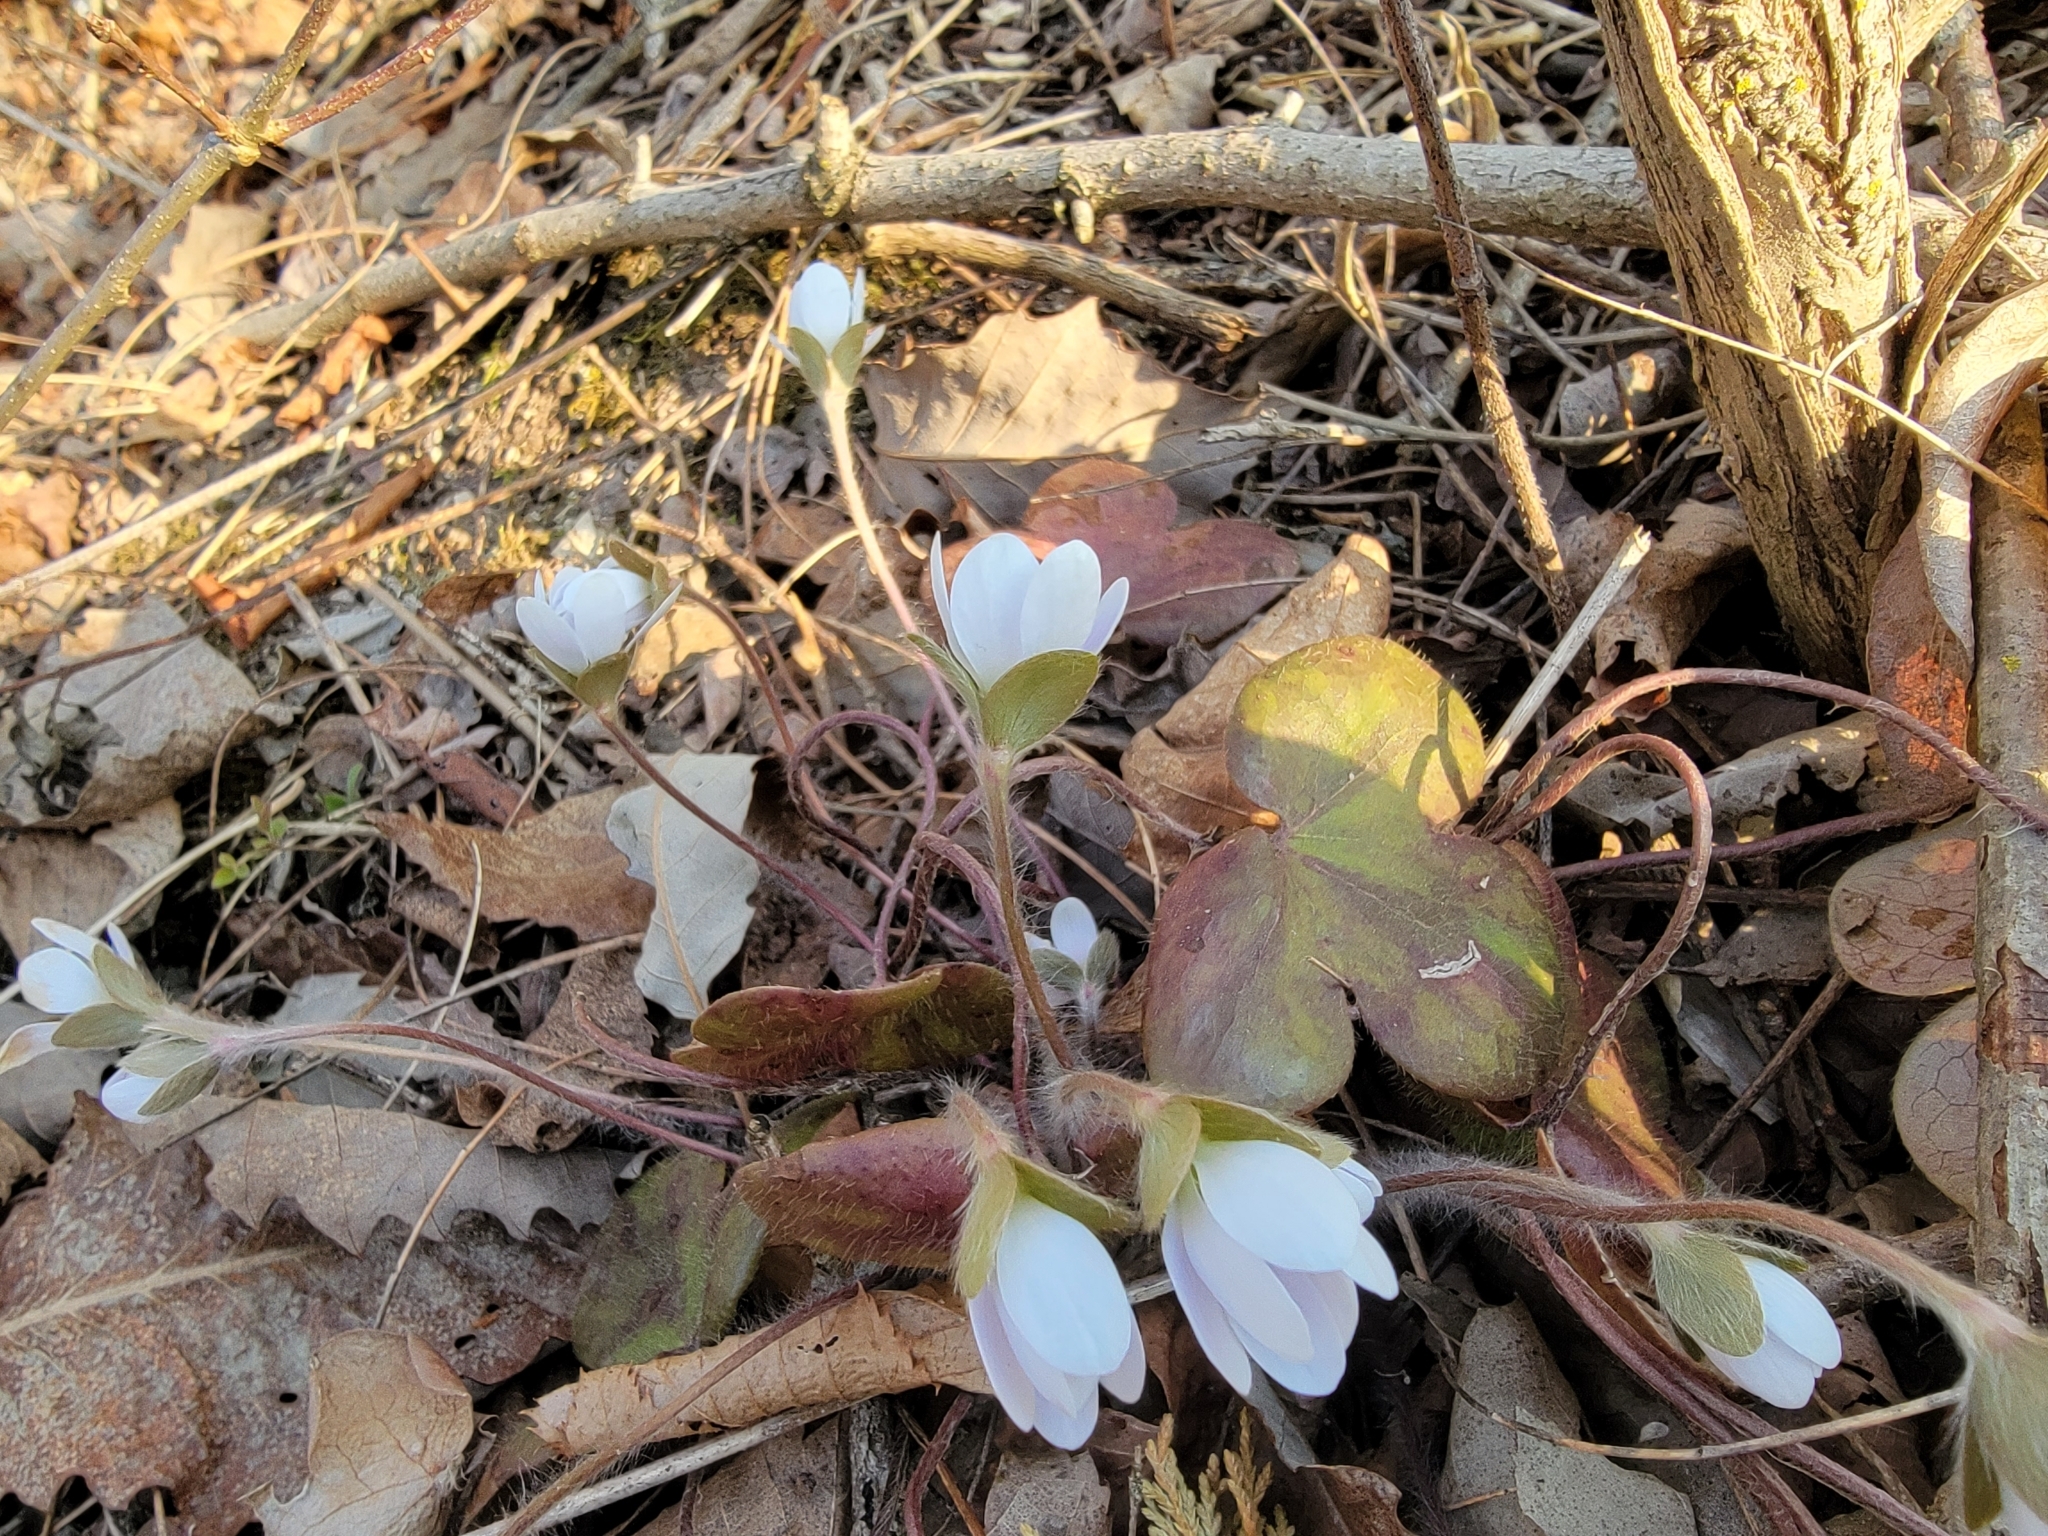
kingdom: Plantae
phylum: Tracheophyta
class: Magnoliopsida
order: Ranunculales
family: Ranunculaceae
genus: Hepatica
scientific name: Hepatica americana
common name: American hepatica
